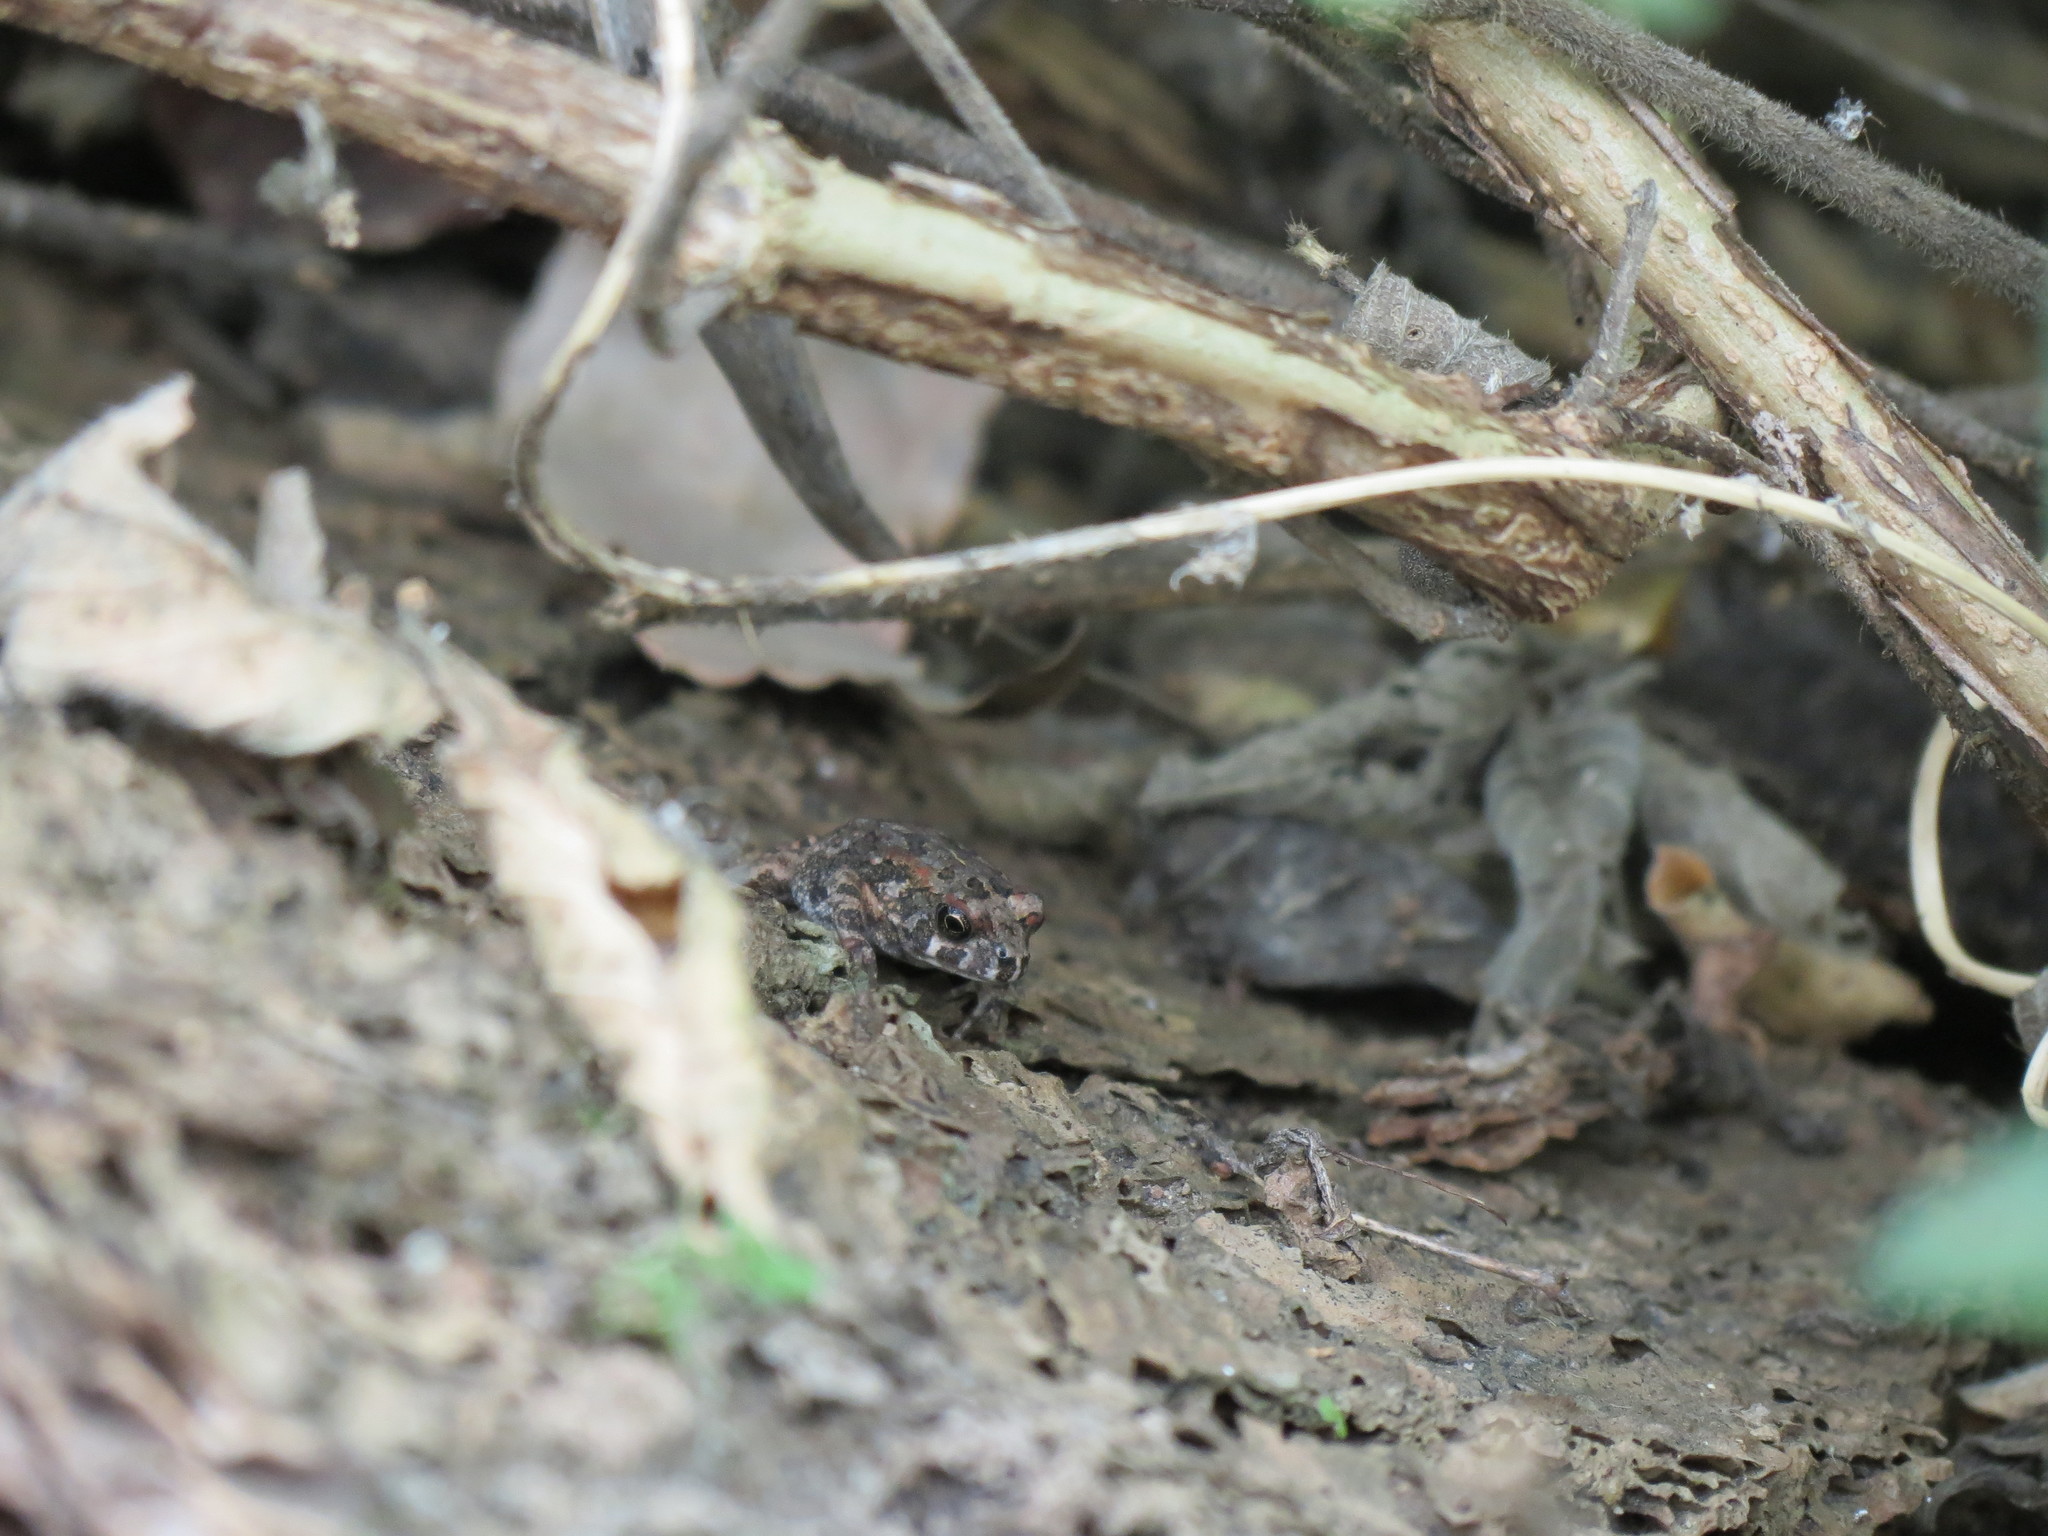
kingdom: Animalia
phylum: Chordata
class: Amphibia
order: Anura
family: Bufonidae
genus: Sclerophrys
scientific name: Sclerophrys gutturalis
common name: African common toad
